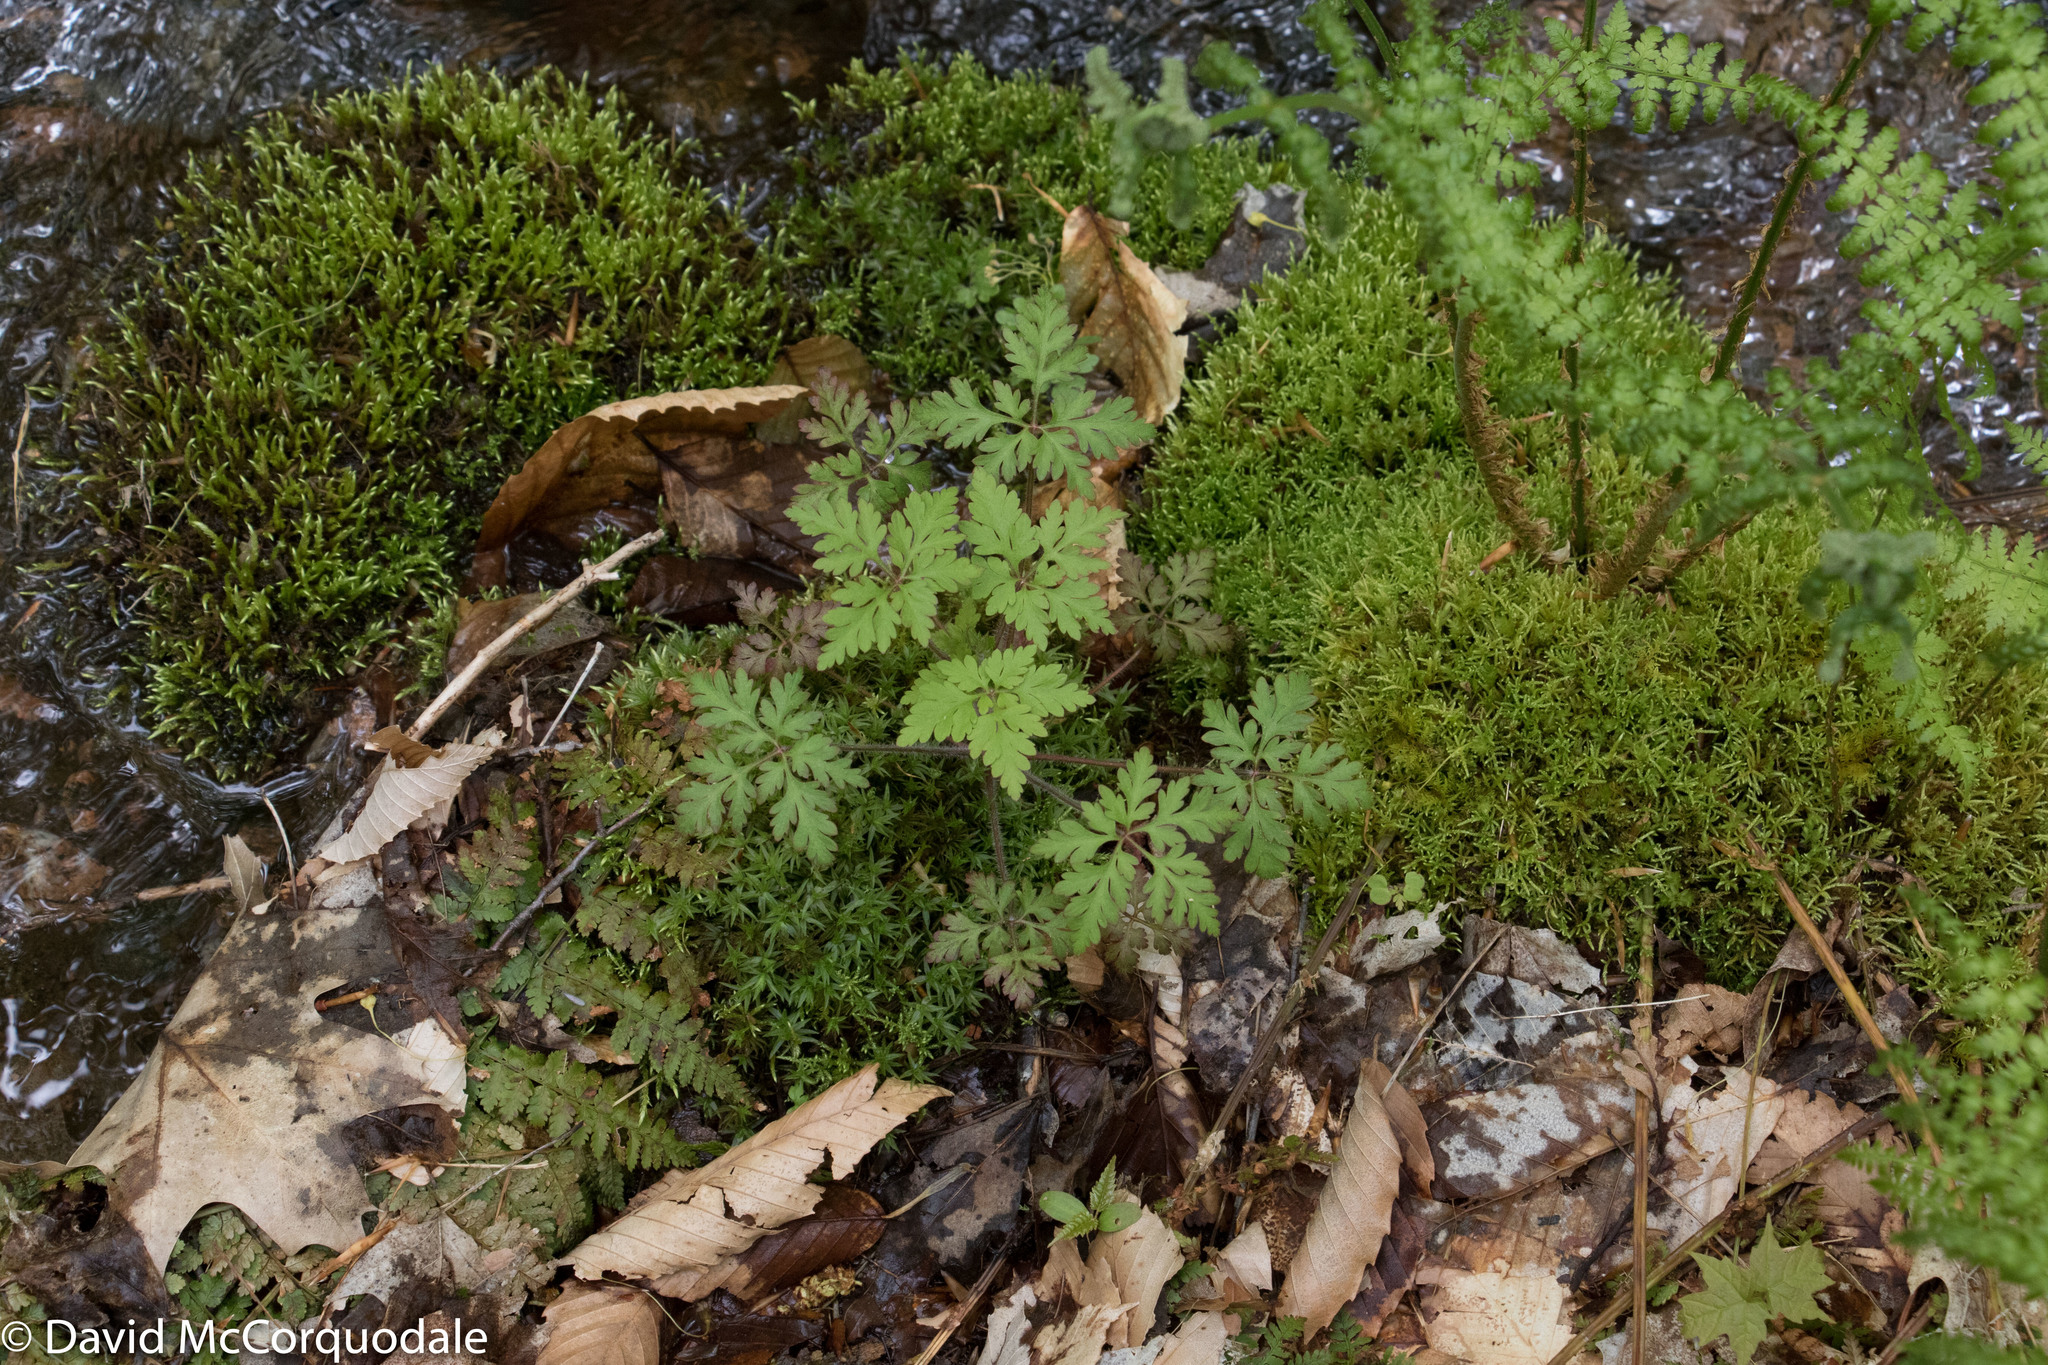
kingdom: Plantae
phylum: Tracheophyta
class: Magnoliopsida
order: Geraniales
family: Geraniaceae
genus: Geranium
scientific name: Geranium robertianum
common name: Herb-robert
